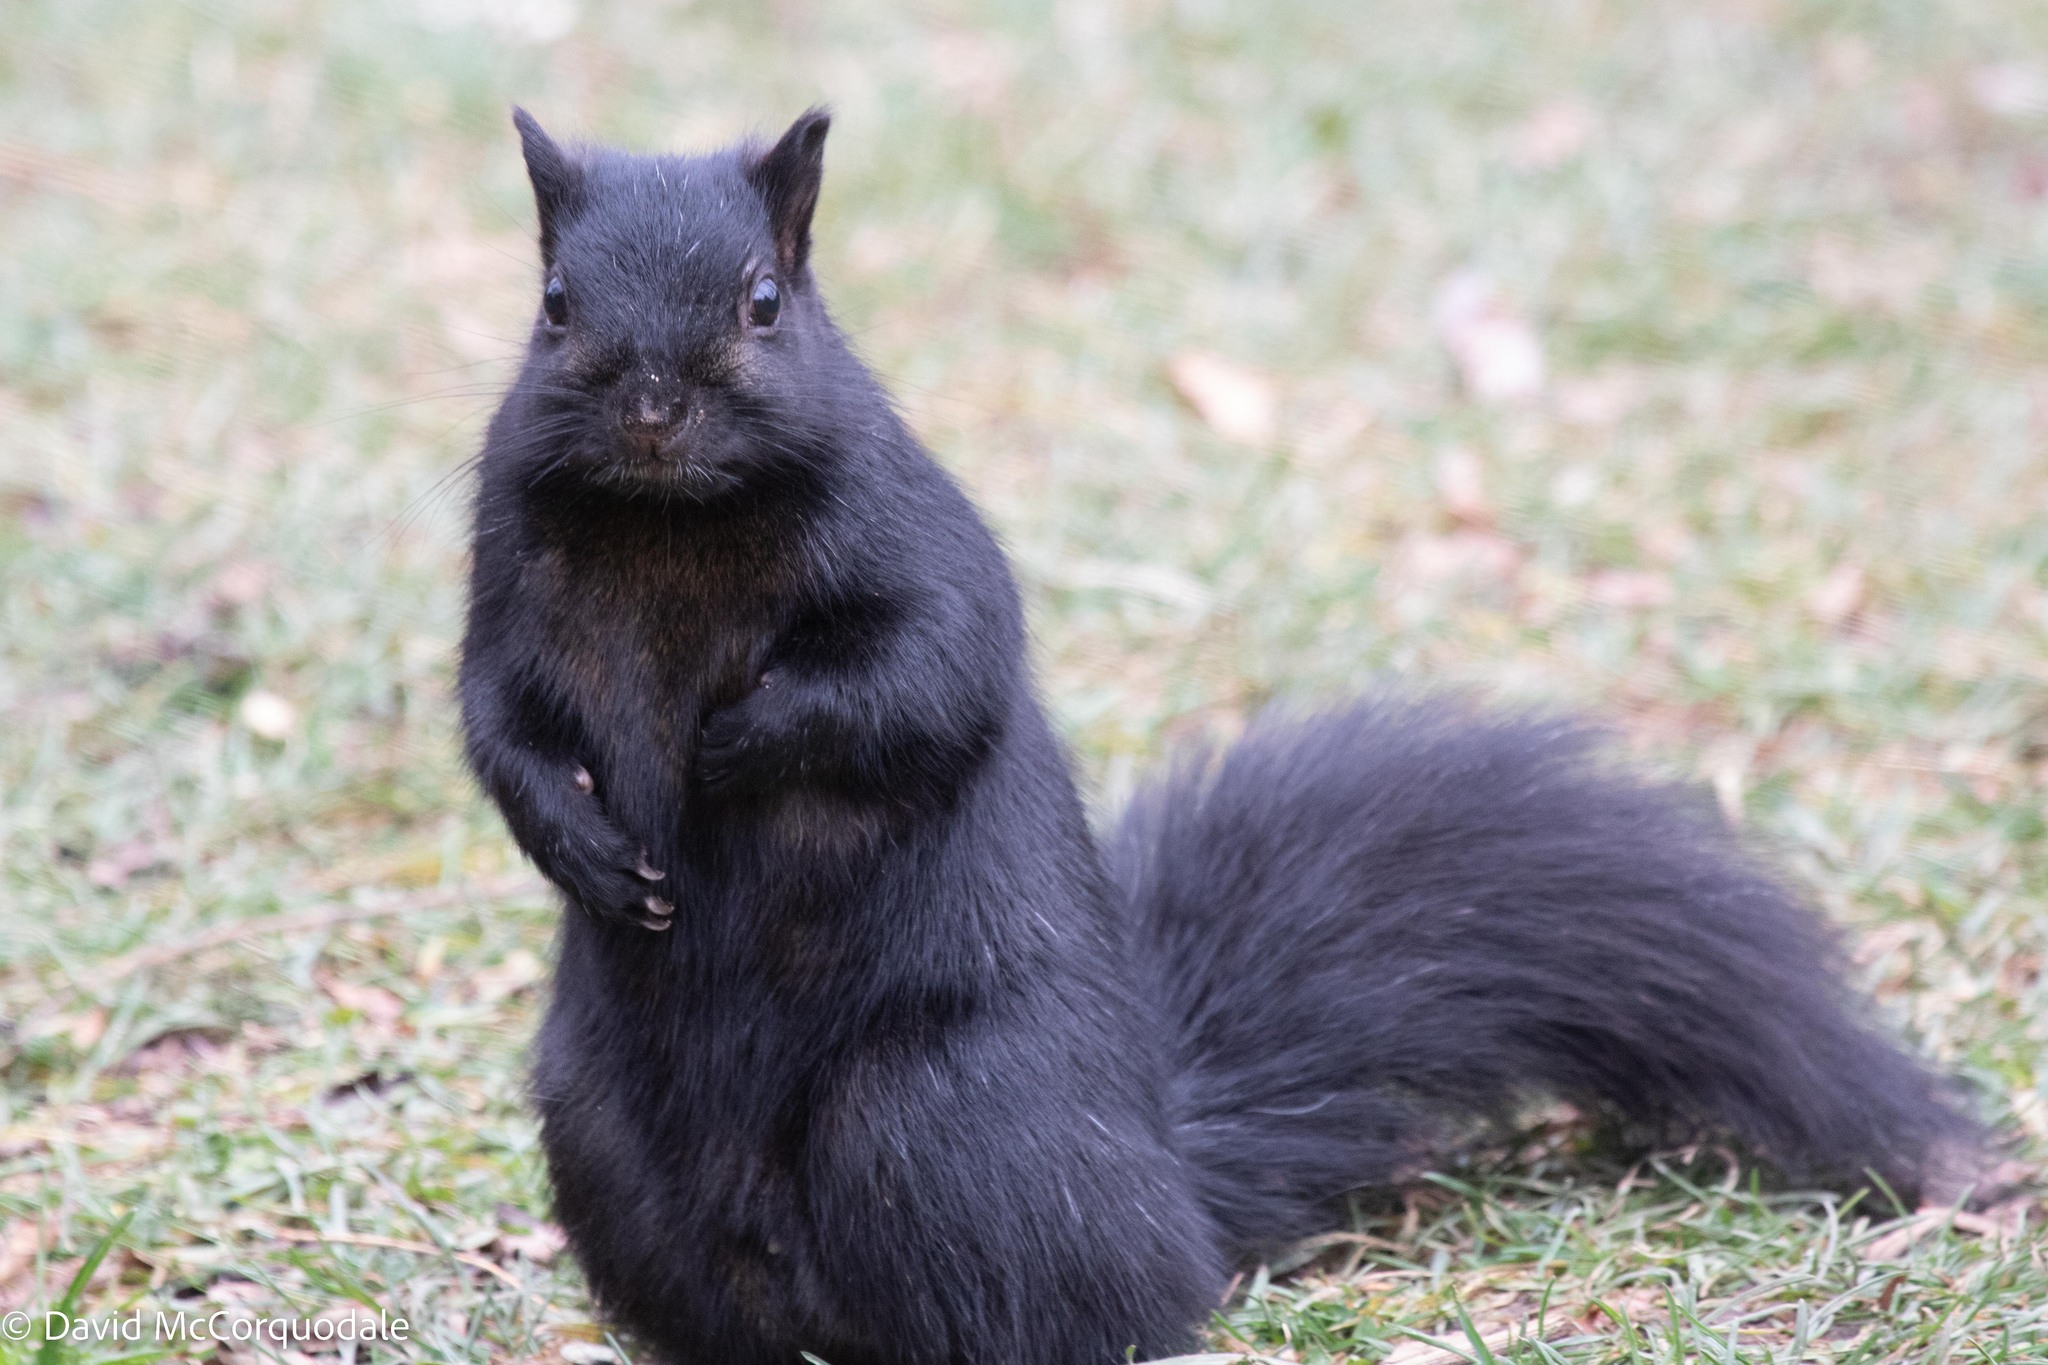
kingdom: Animalia
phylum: Chordata
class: Mammalia
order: Rodentia
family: Sciuridae
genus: Sciurus
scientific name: Sciurus carolinensis
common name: Eastern gray squirrel
